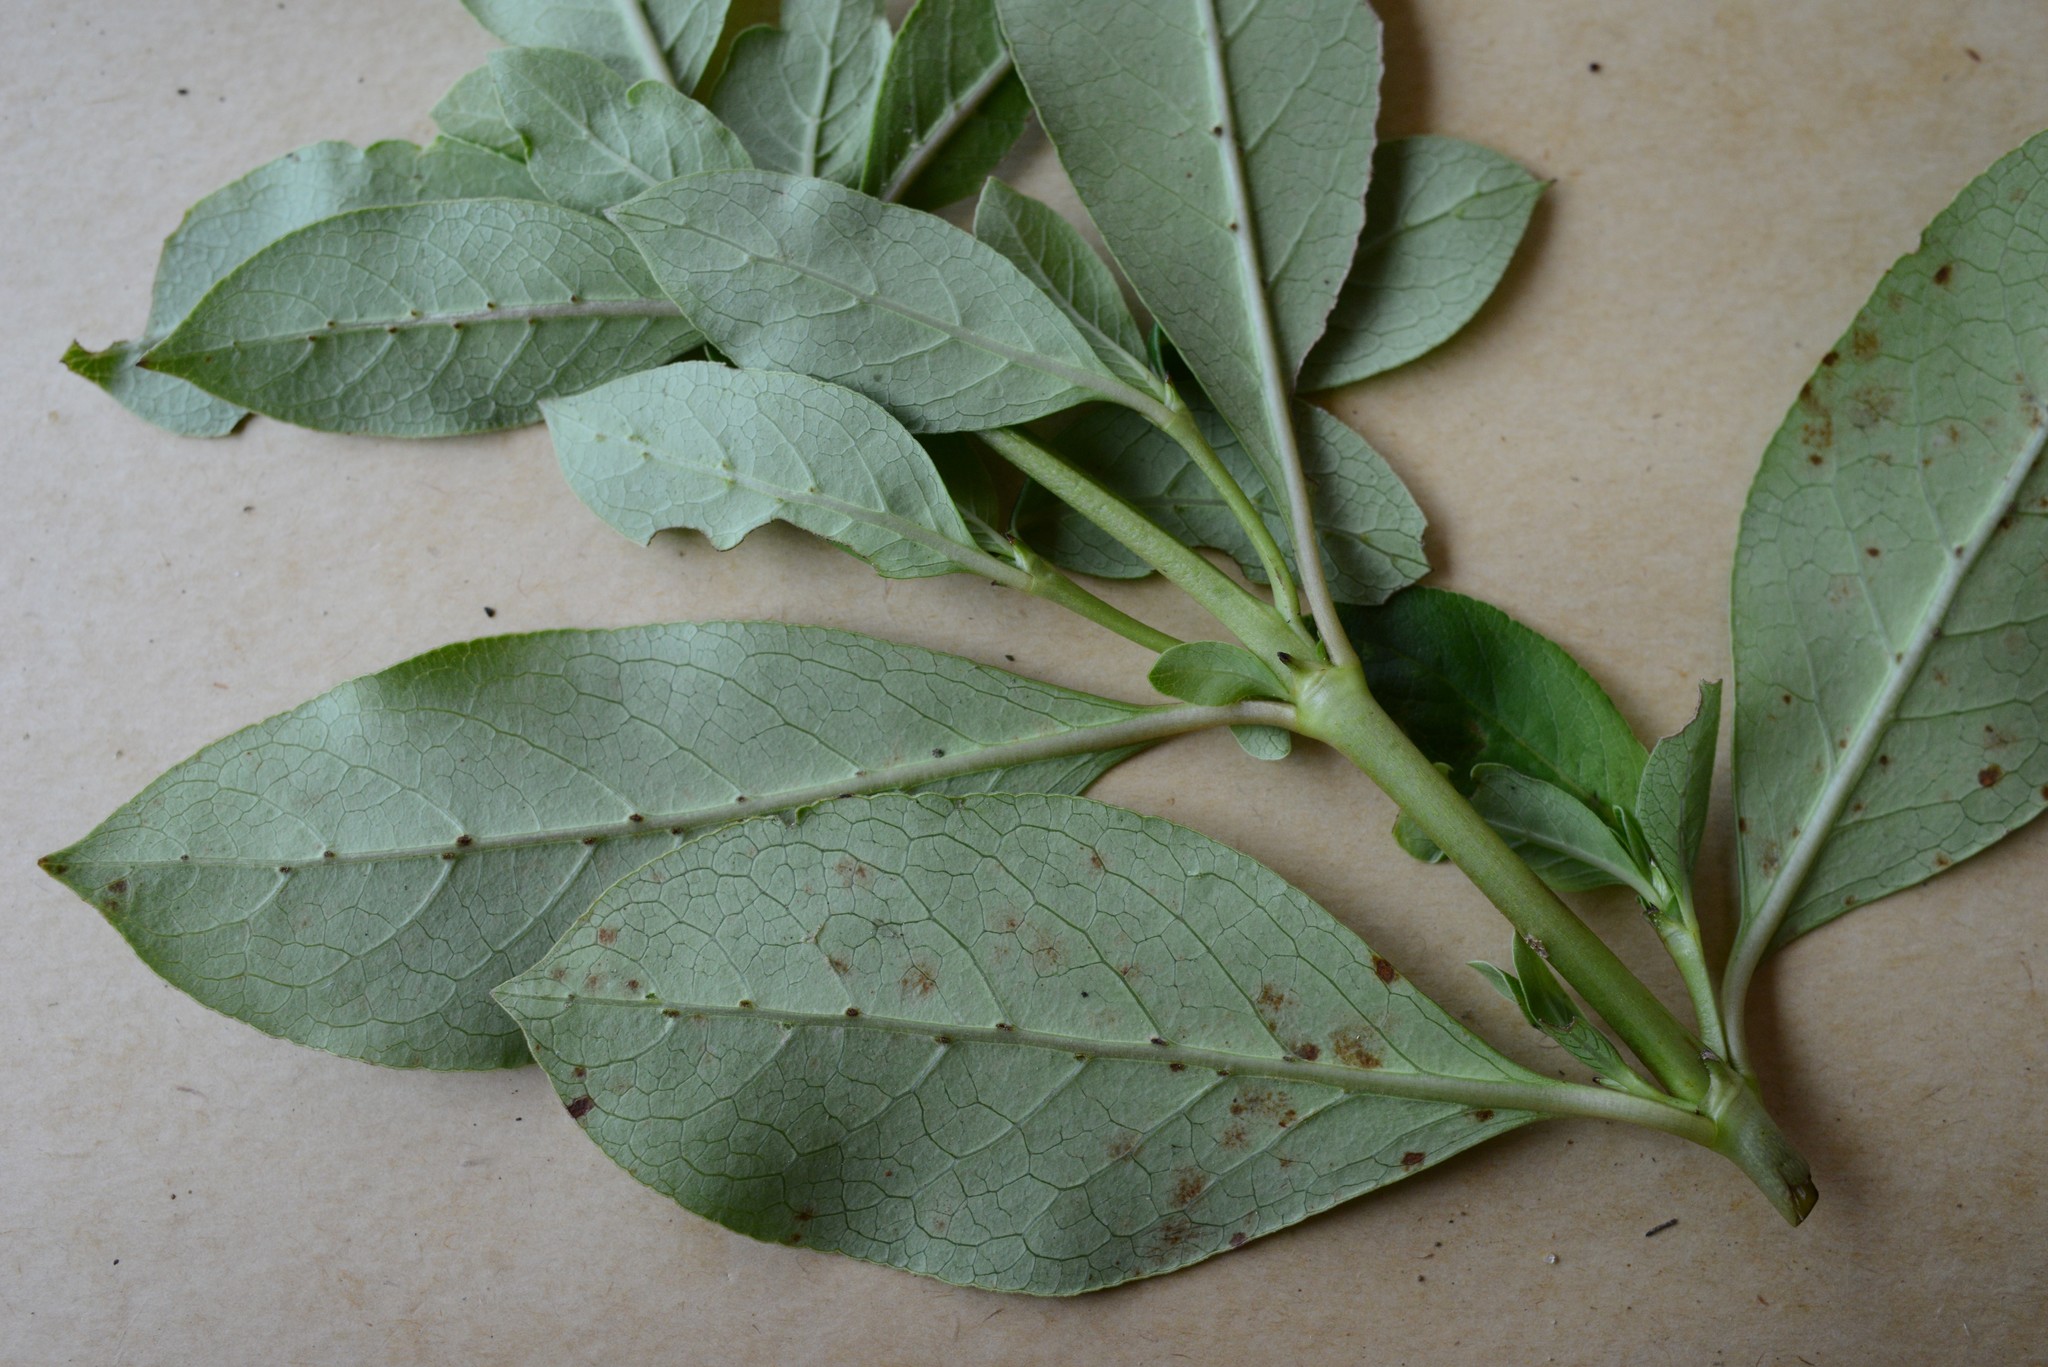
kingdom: Plantae
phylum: Tracheophyta
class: Magnoliopsida
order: Gentianales
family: Rubiaceae
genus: Coprosma
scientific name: Coprosma robusta
